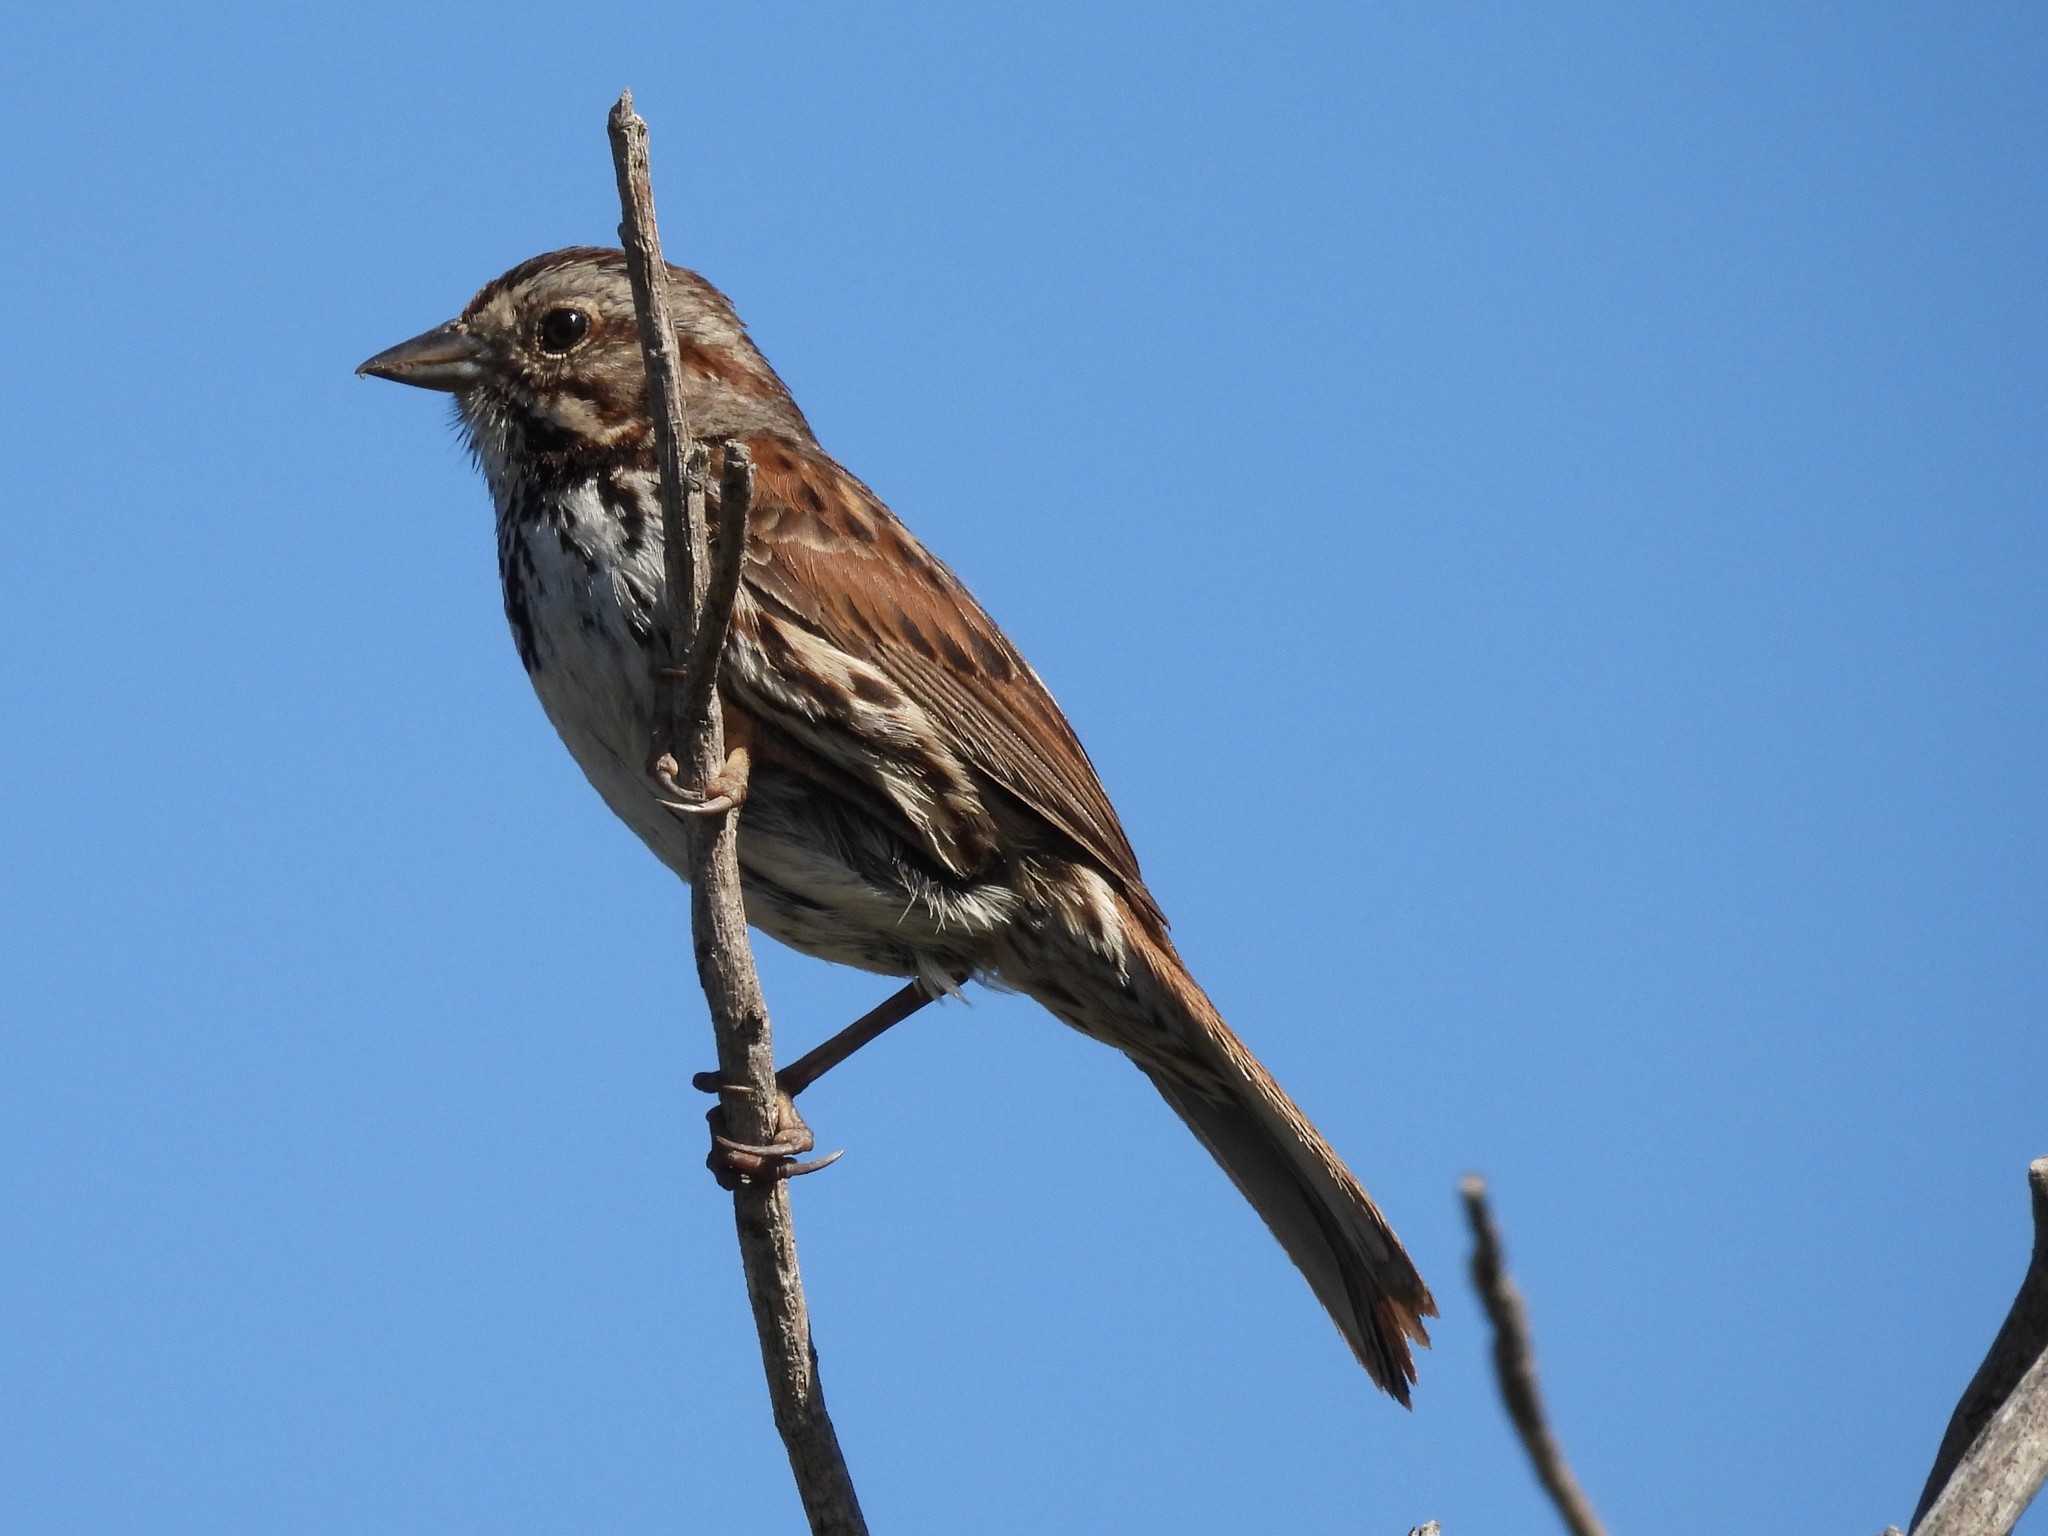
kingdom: Animalia
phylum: Chordata
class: Aves
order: Passeriformes
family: Passerellidae
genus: Melospiza
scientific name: Melospiza melodia
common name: Song sparrow
